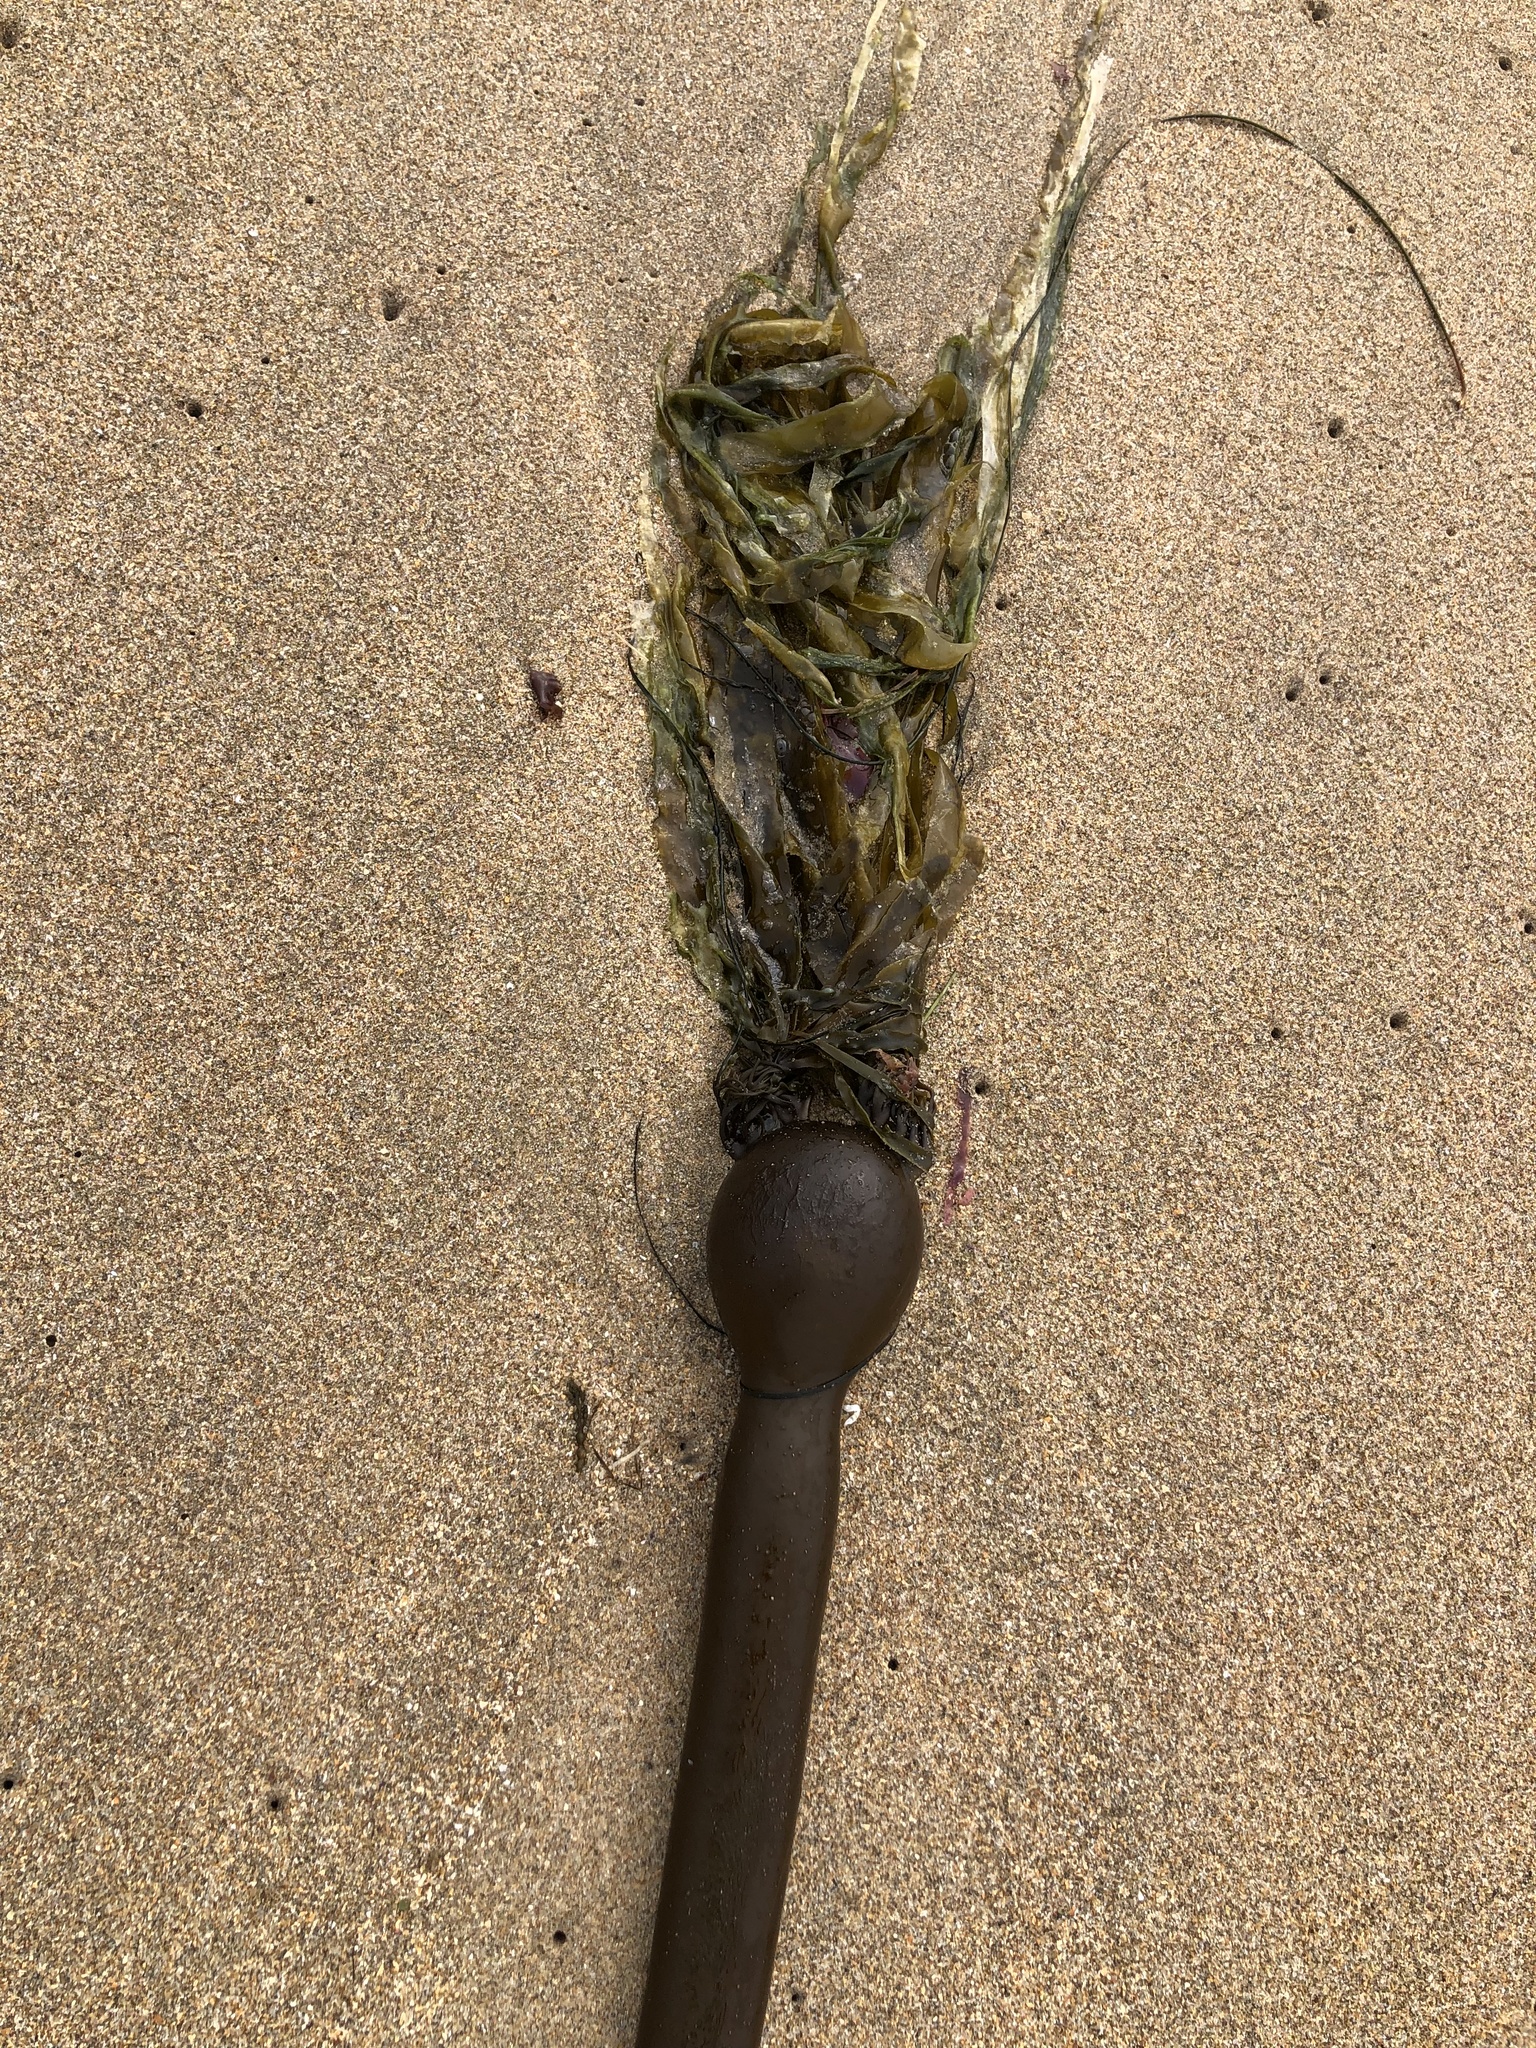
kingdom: Chromista
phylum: Ochrophyta
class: Phaeophyceae
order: Laminariales
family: Laminariaceae
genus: Nereocystis
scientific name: Nereocystis luetkeana
